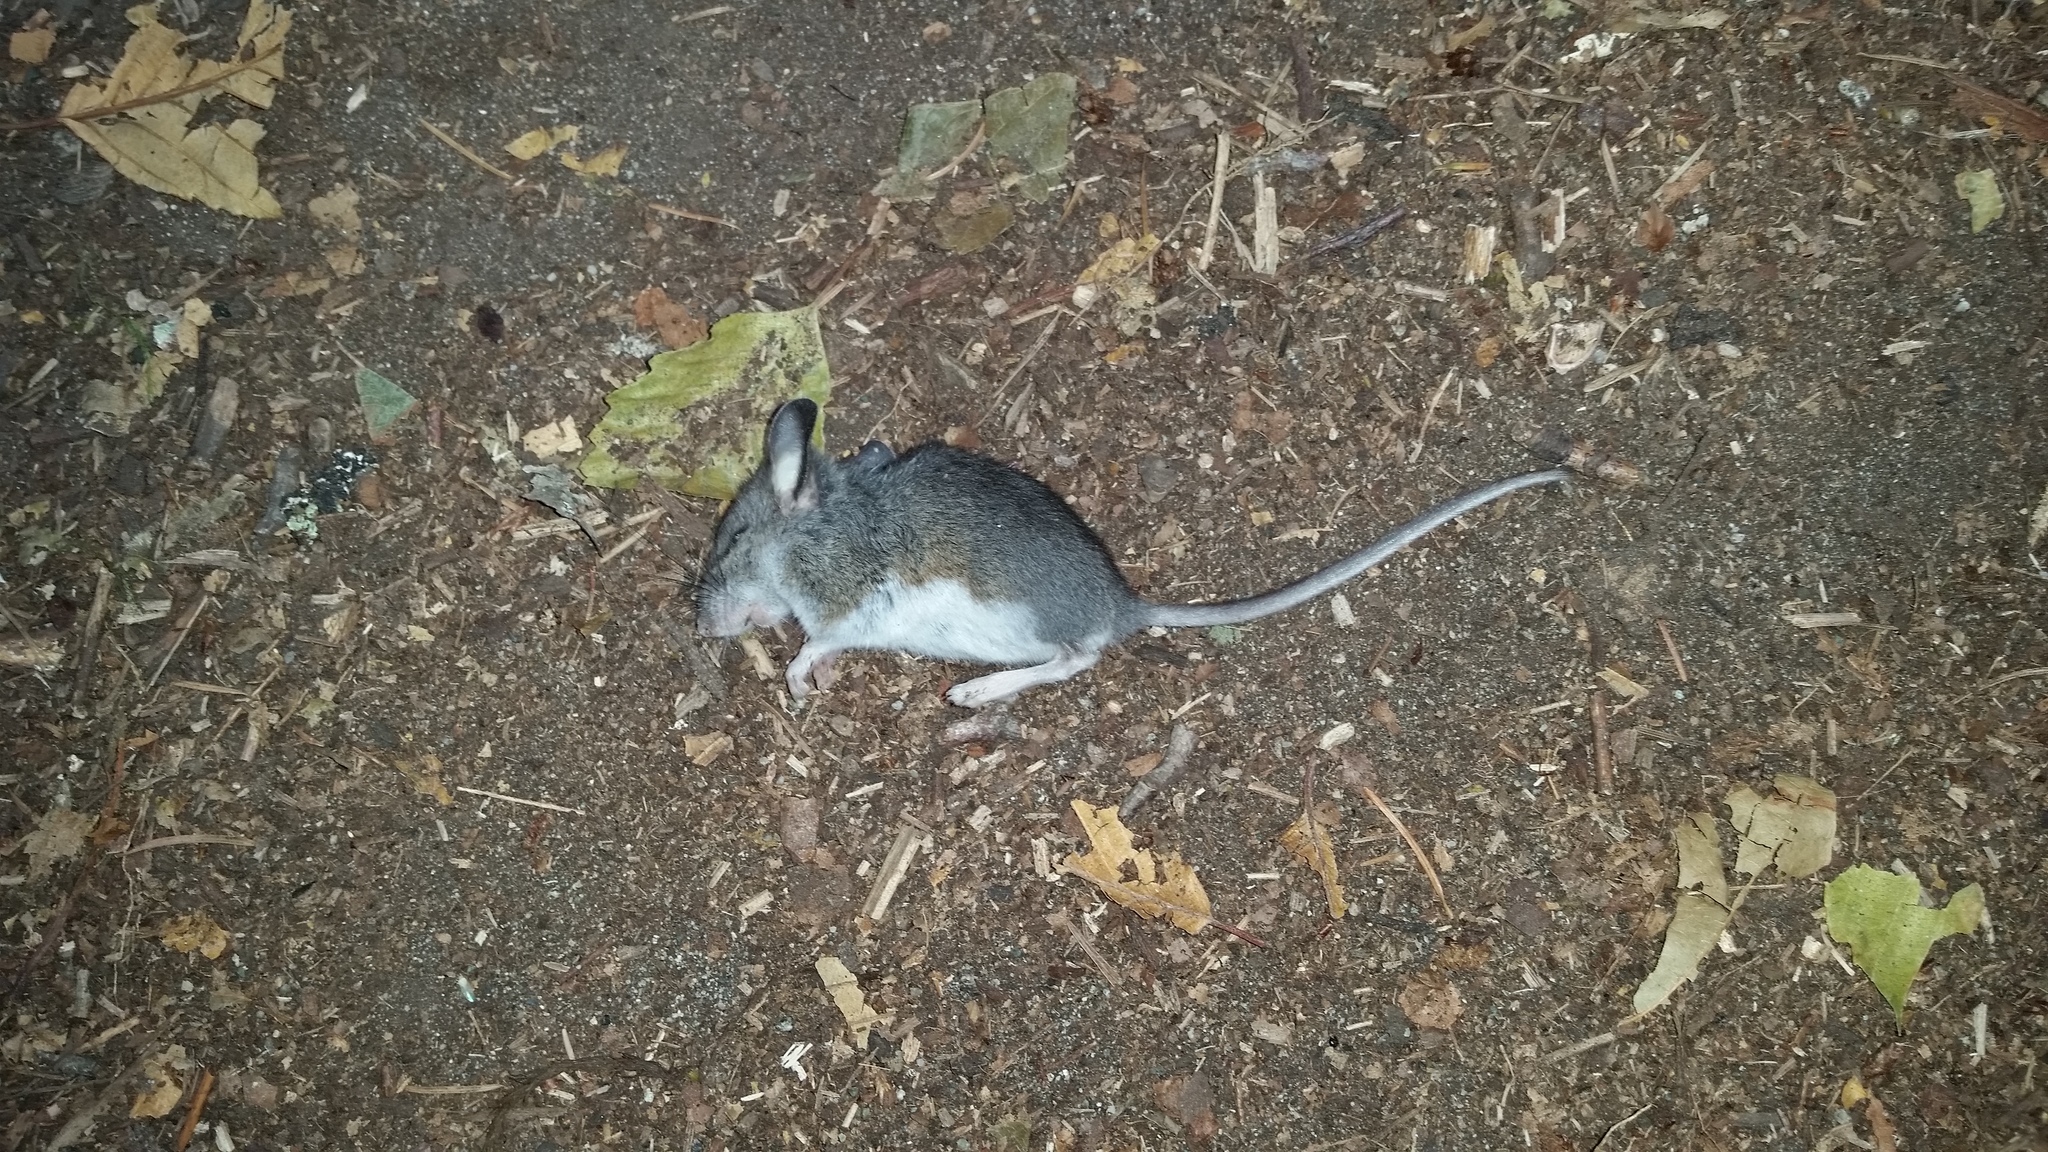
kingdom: Animalia
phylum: Chordata
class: Mammalia
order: Rodentia
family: Cricetidae
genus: Peromyscus
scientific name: Peromyscus maniculatus
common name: Deer mouse
